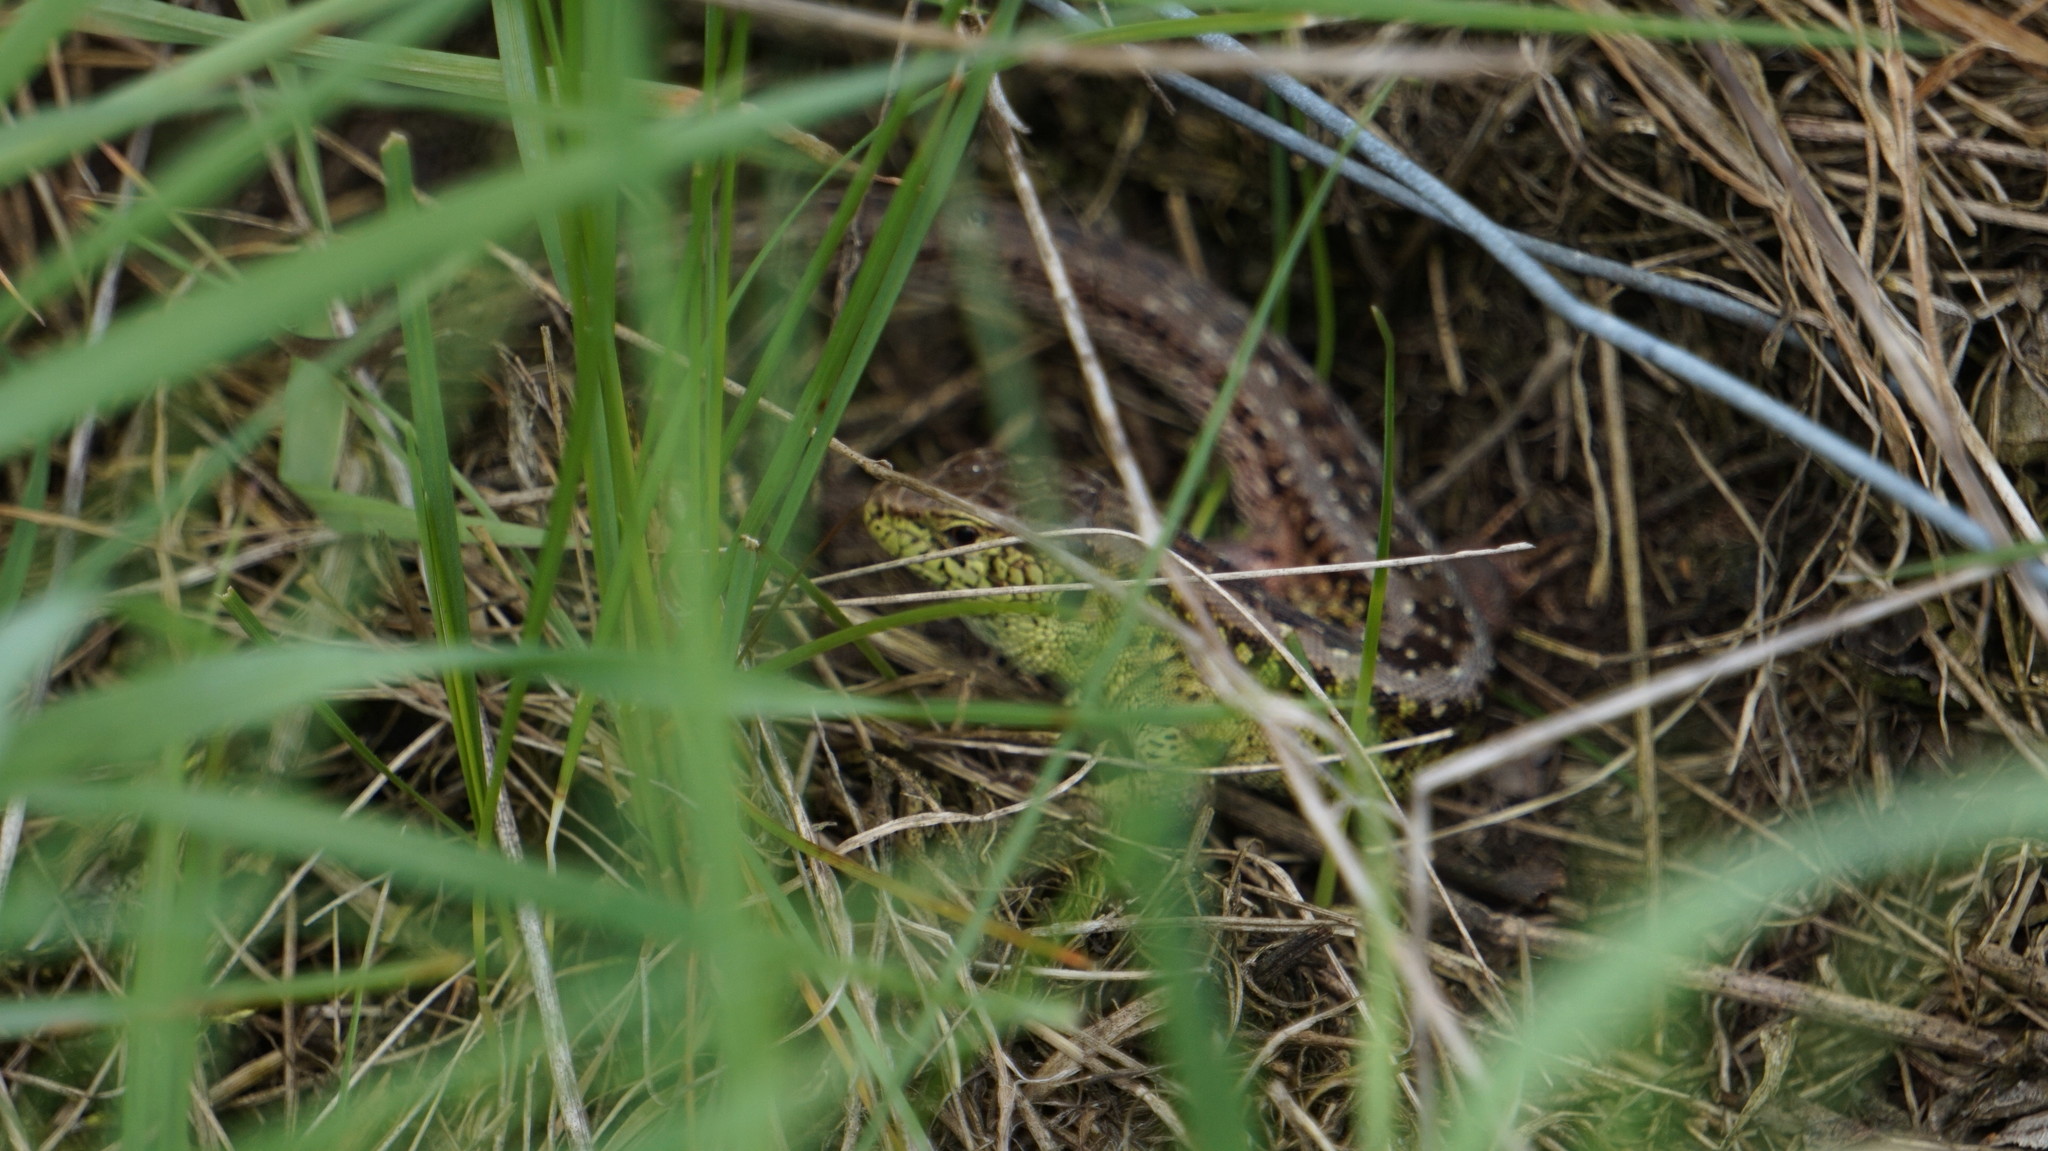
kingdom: Animalia
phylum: Chordata
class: Squamata
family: Lacertidae
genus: Lacerta
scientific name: Lacerta agilis
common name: Sand lizard
